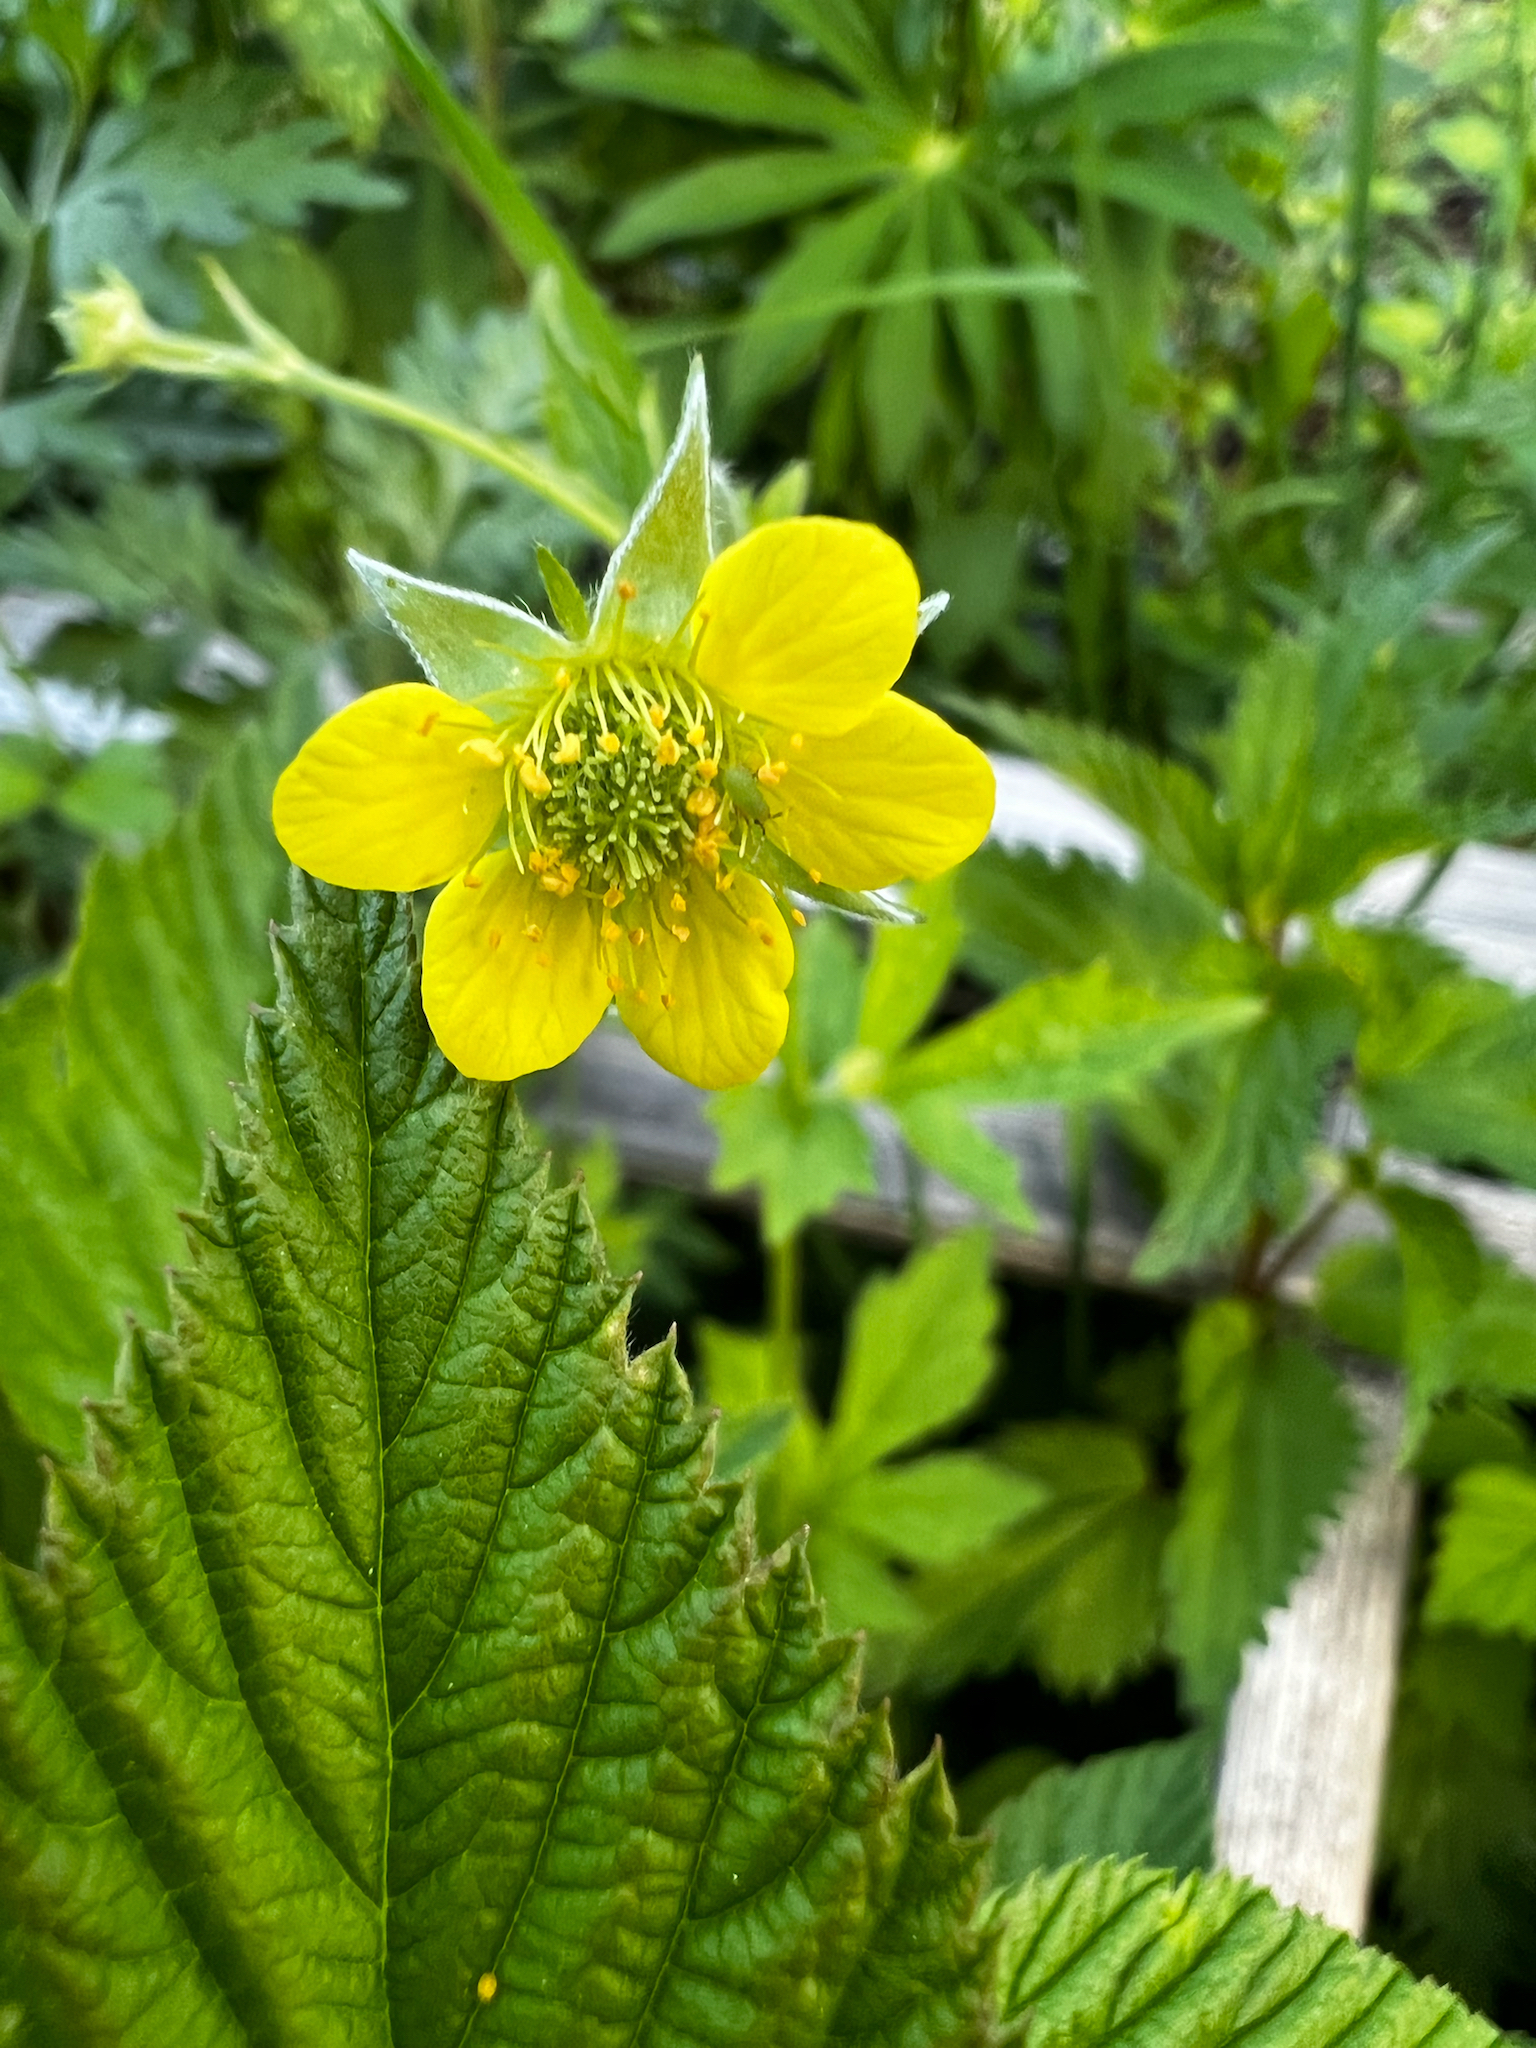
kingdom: Plantae
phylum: Tracheophyta
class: Magnoliopsida
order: Rosales
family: Rosaceae
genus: Geum
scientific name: Geum urbanum
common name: Wood avens
